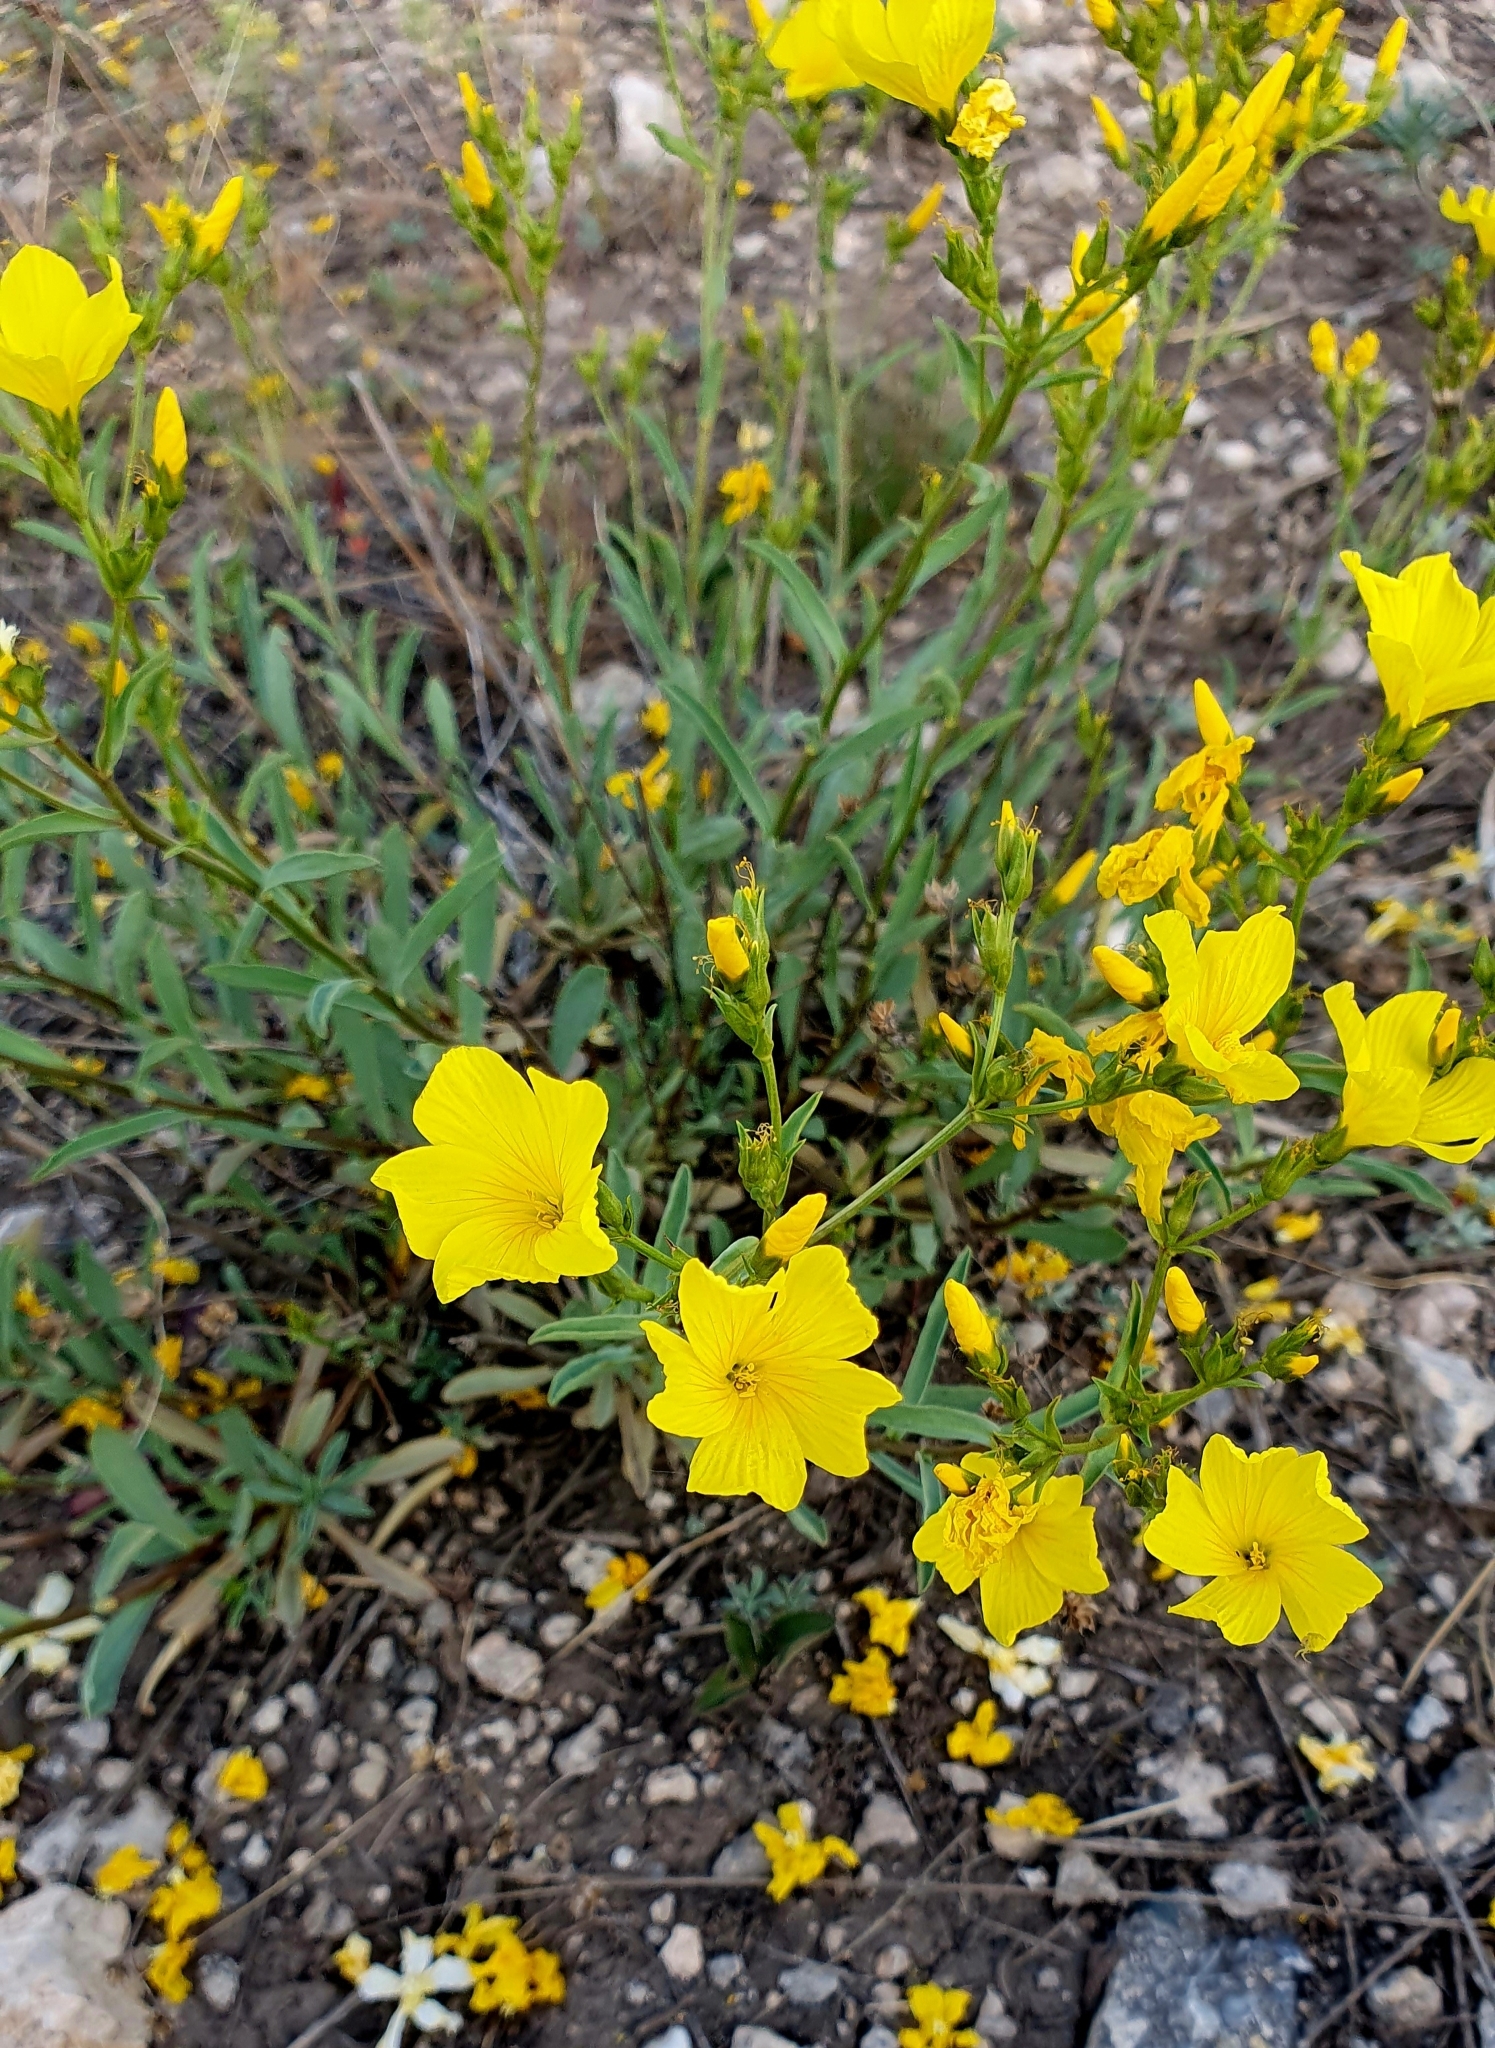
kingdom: Plantae
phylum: Tracheophyta
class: Magnoliopsida
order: Malpighiales
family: Linaceae
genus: Linum
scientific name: Linum ucranicum
